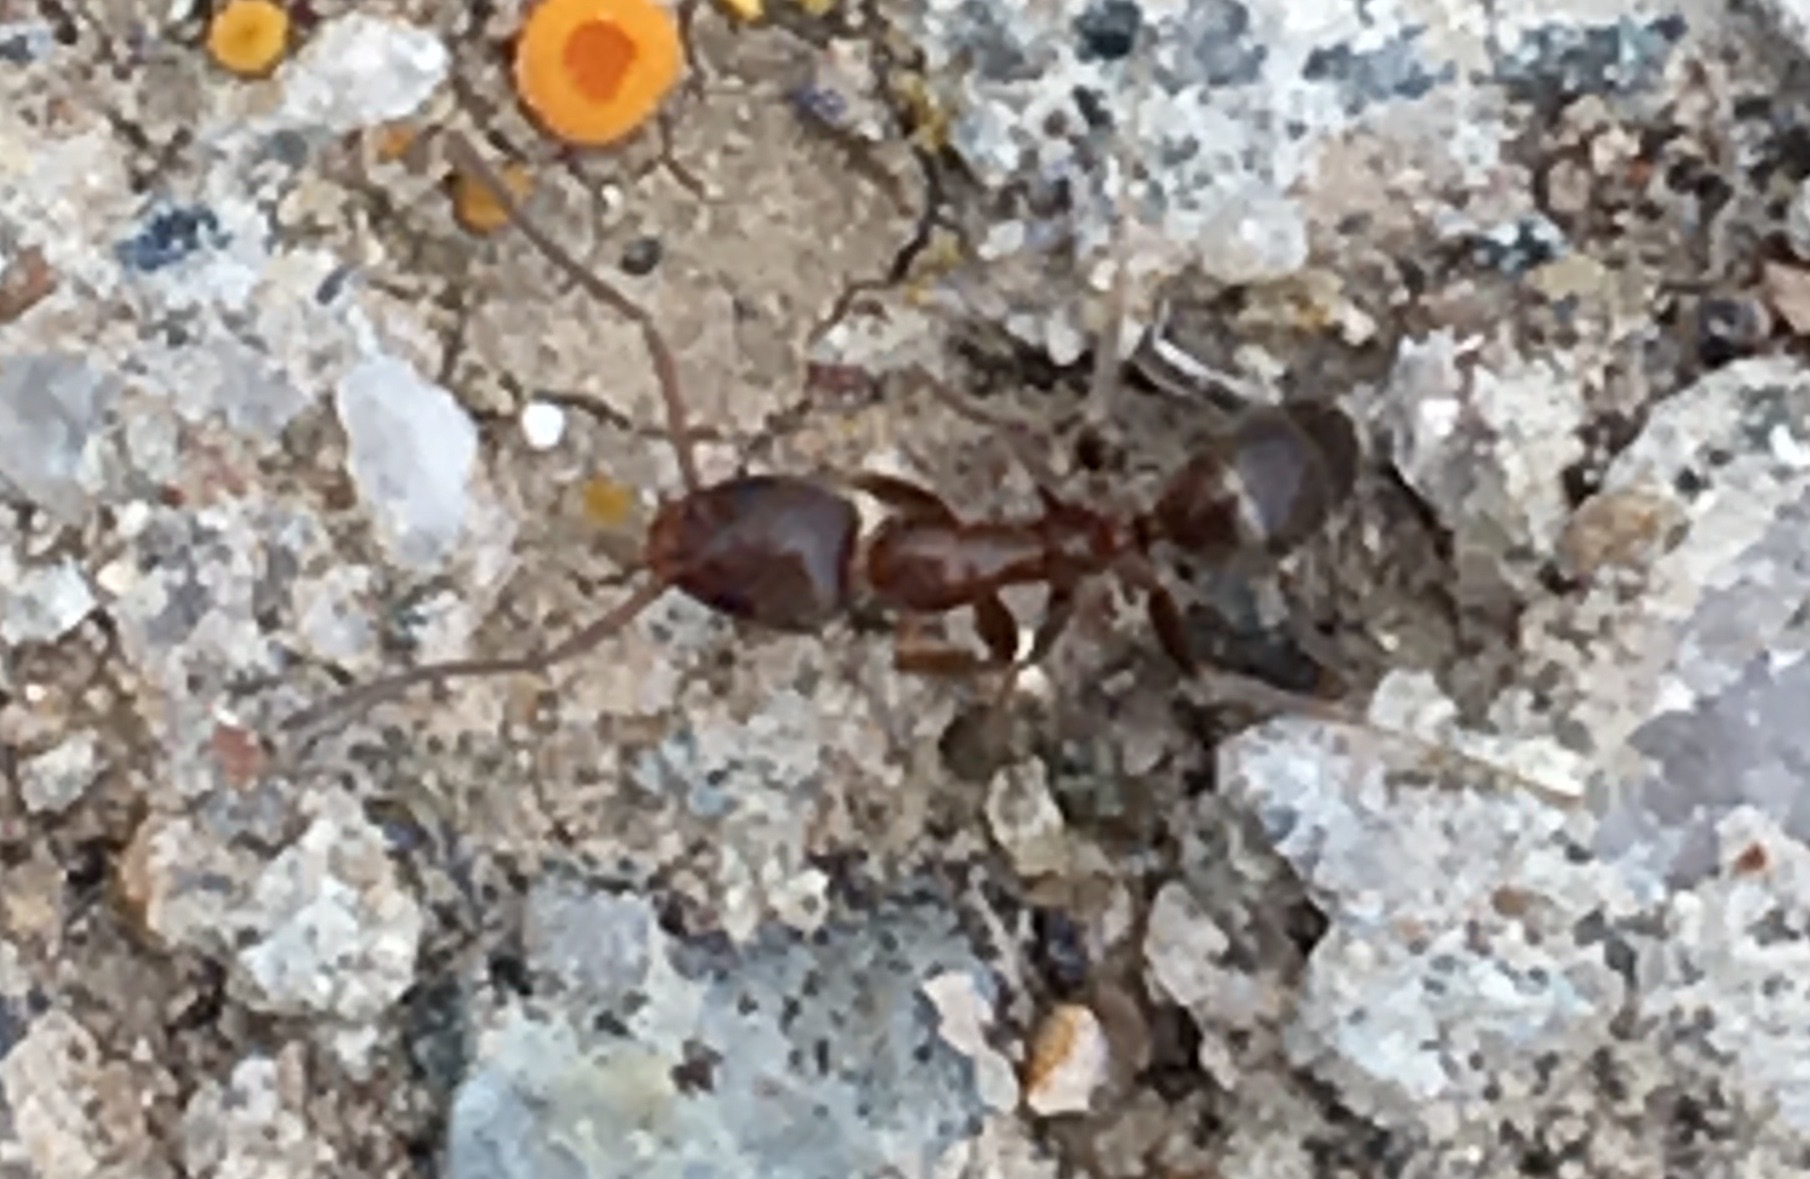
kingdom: Animalia
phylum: Arthropoda
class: Insecta
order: Hymenoptera
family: Formicidae
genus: Linepithema
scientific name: Linepithema humile
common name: Argentine ant
